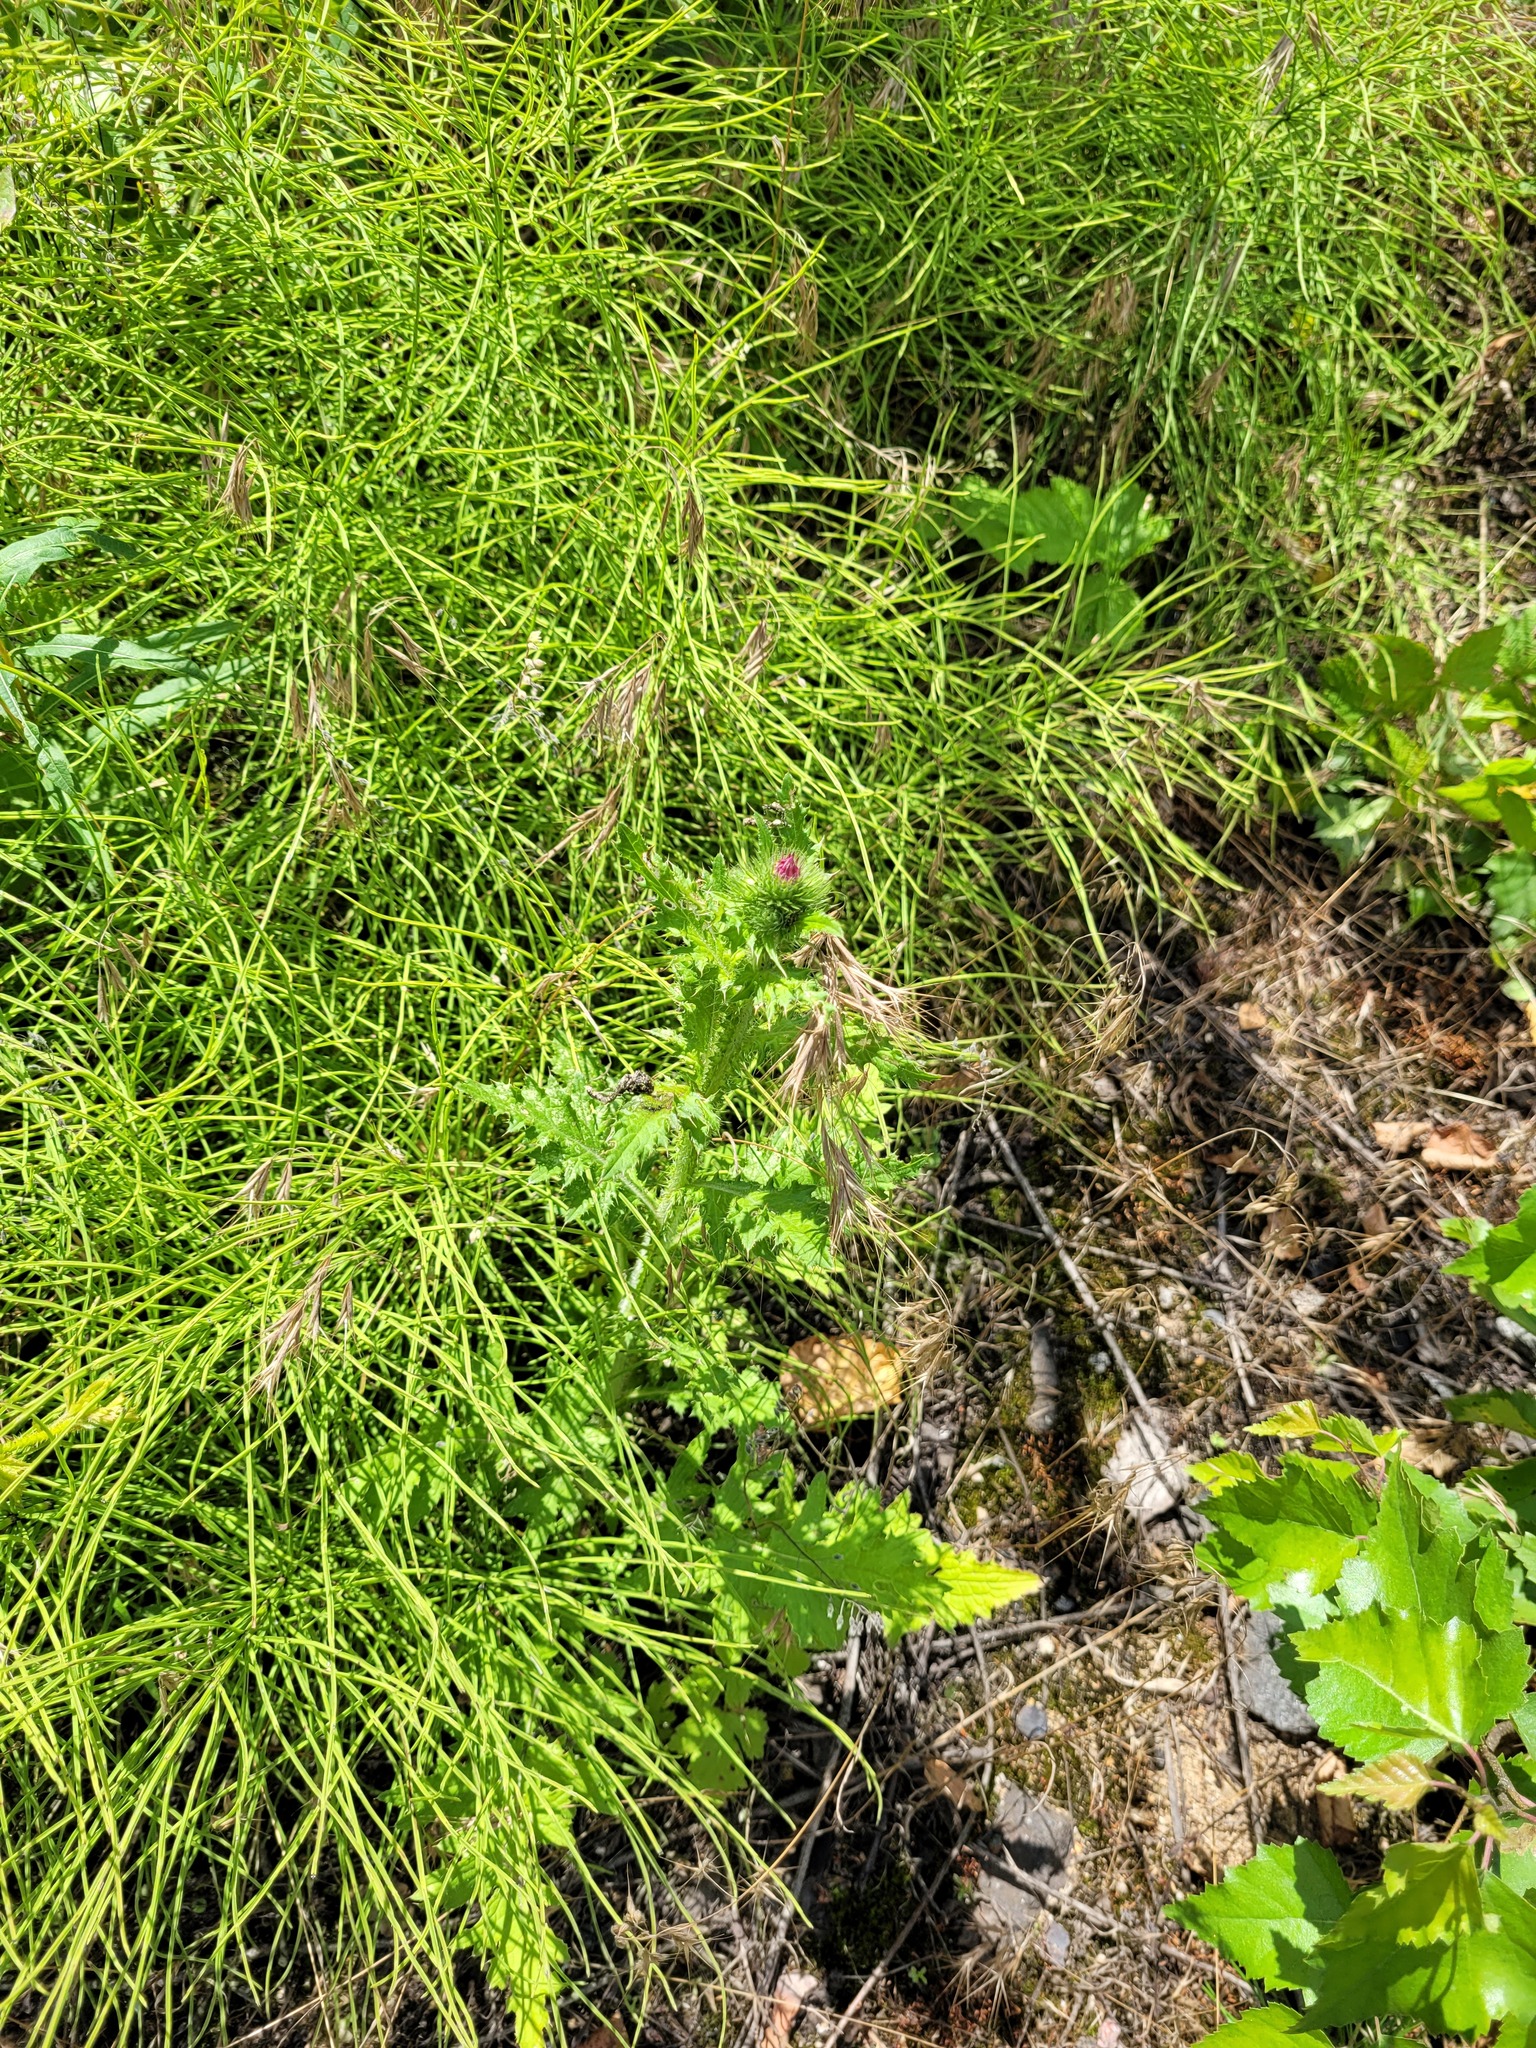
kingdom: Plantae
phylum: Tracheophyta
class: Magnoliopsida
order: Asterales
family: Asteraceae
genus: Carduus
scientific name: Carduus crispus
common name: Welted thistle
